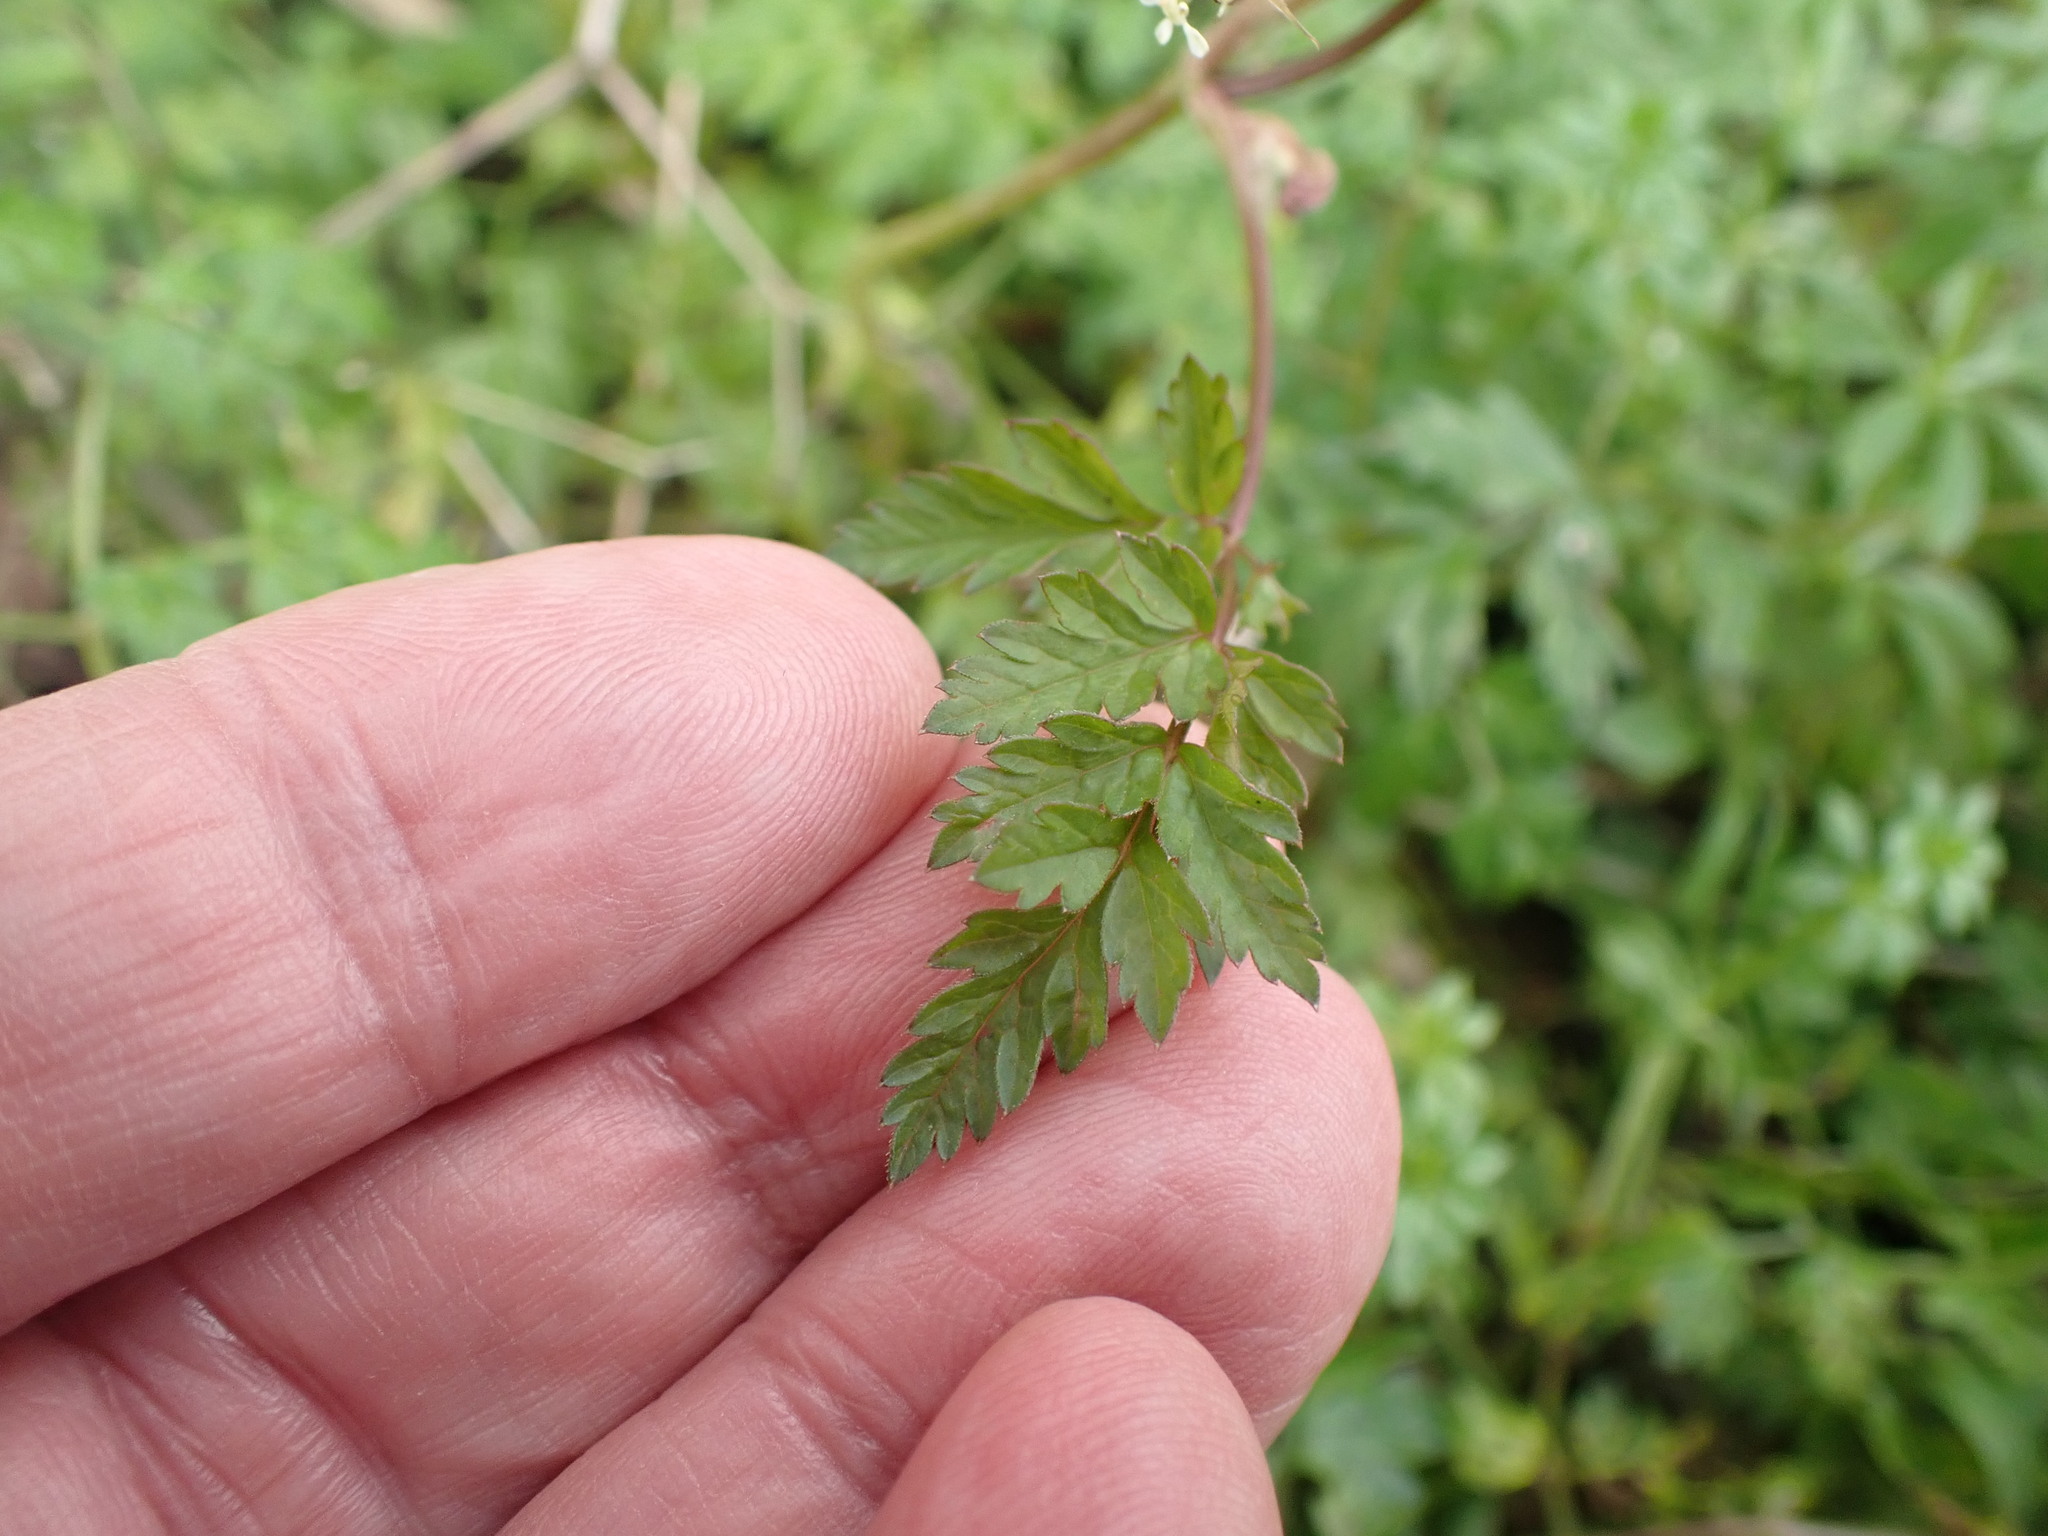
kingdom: Plantae
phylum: Tracheophyta
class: Magnoliopsida
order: Apiales
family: Apiaceae
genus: Anthriscus
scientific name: Anthriscus sylvestris
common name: Cow parsley
